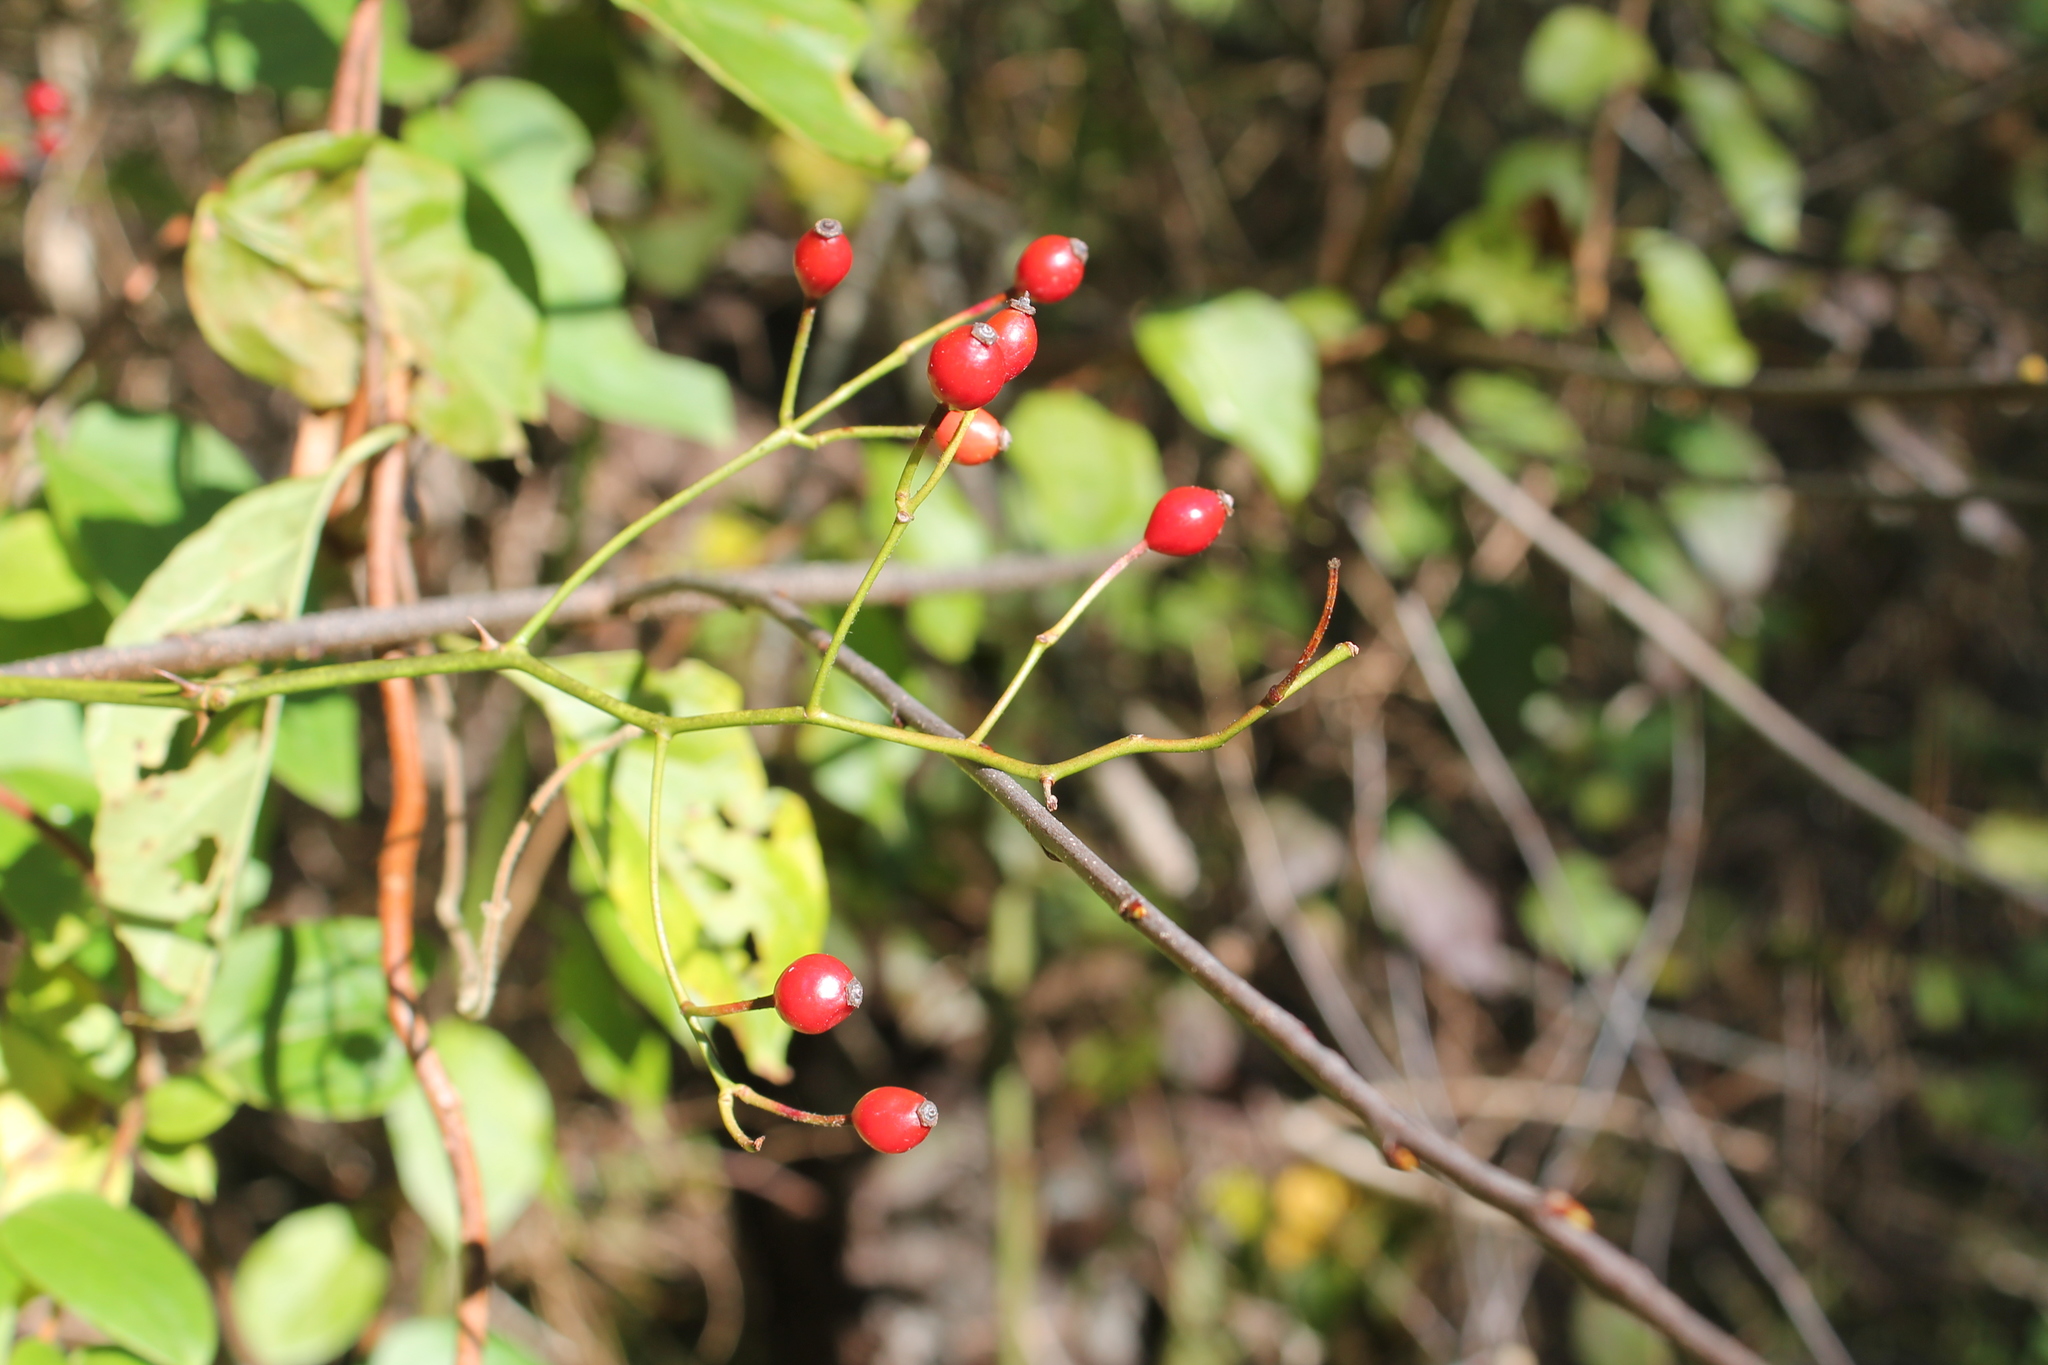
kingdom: Plantae
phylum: Tracheophyta
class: Magnoliopsida
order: Rosales
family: Rosaceae
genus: Rosa
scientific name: Rosa multiflora
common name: Multiflora rose
